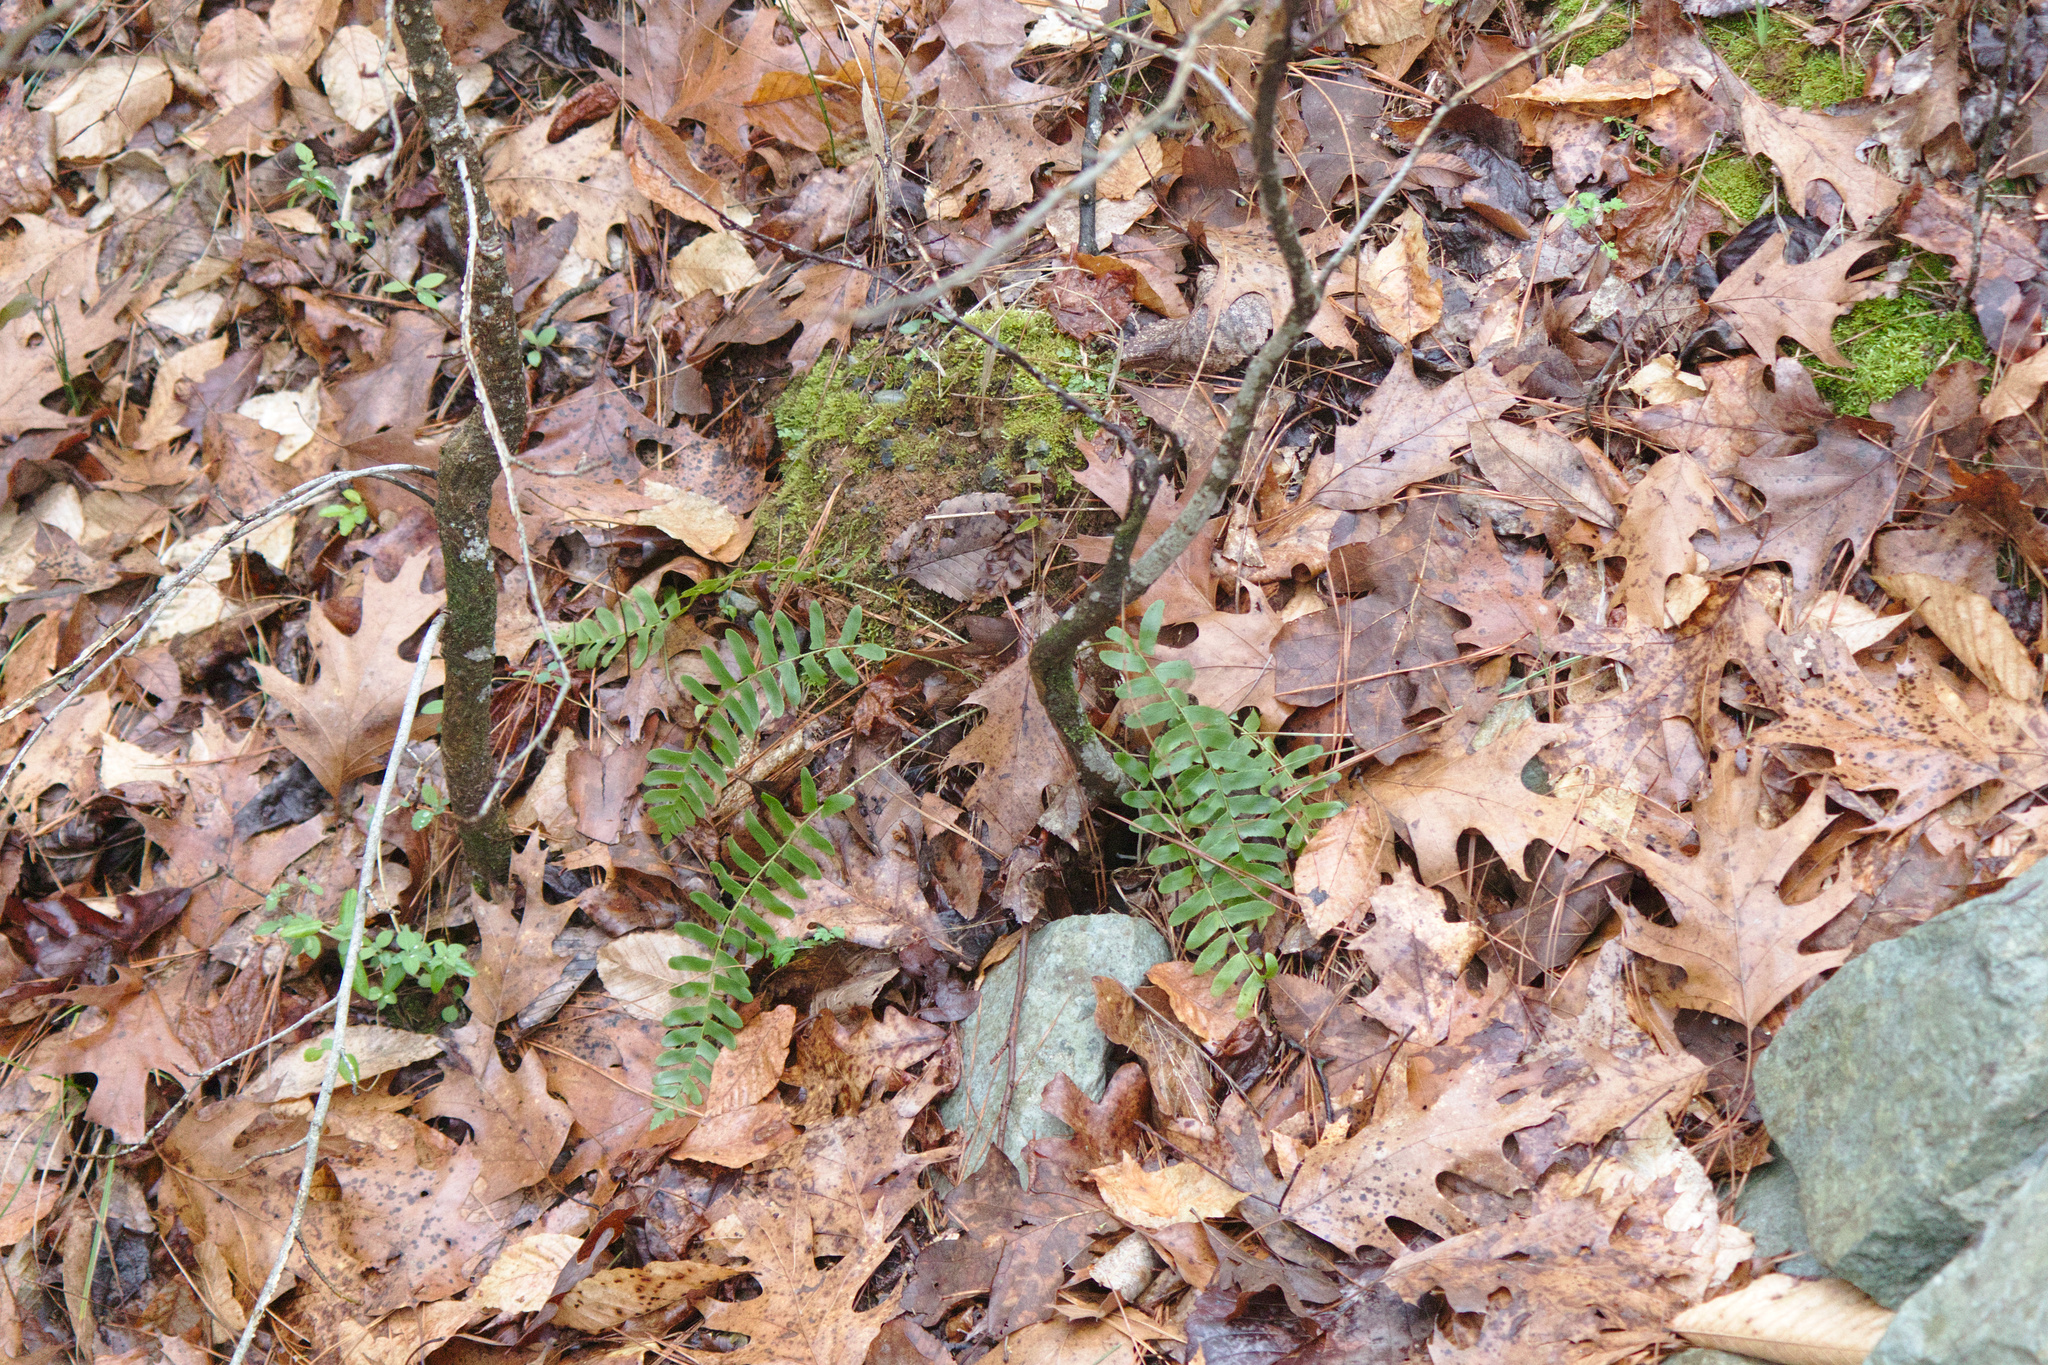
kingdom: Plantae
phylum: Tracheophyta
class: Polypodiopsida
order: Polypodiales
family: Dryopteridaceae
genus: Polystichum
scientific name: Polystichum acrostichoides
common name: Christmas fern
